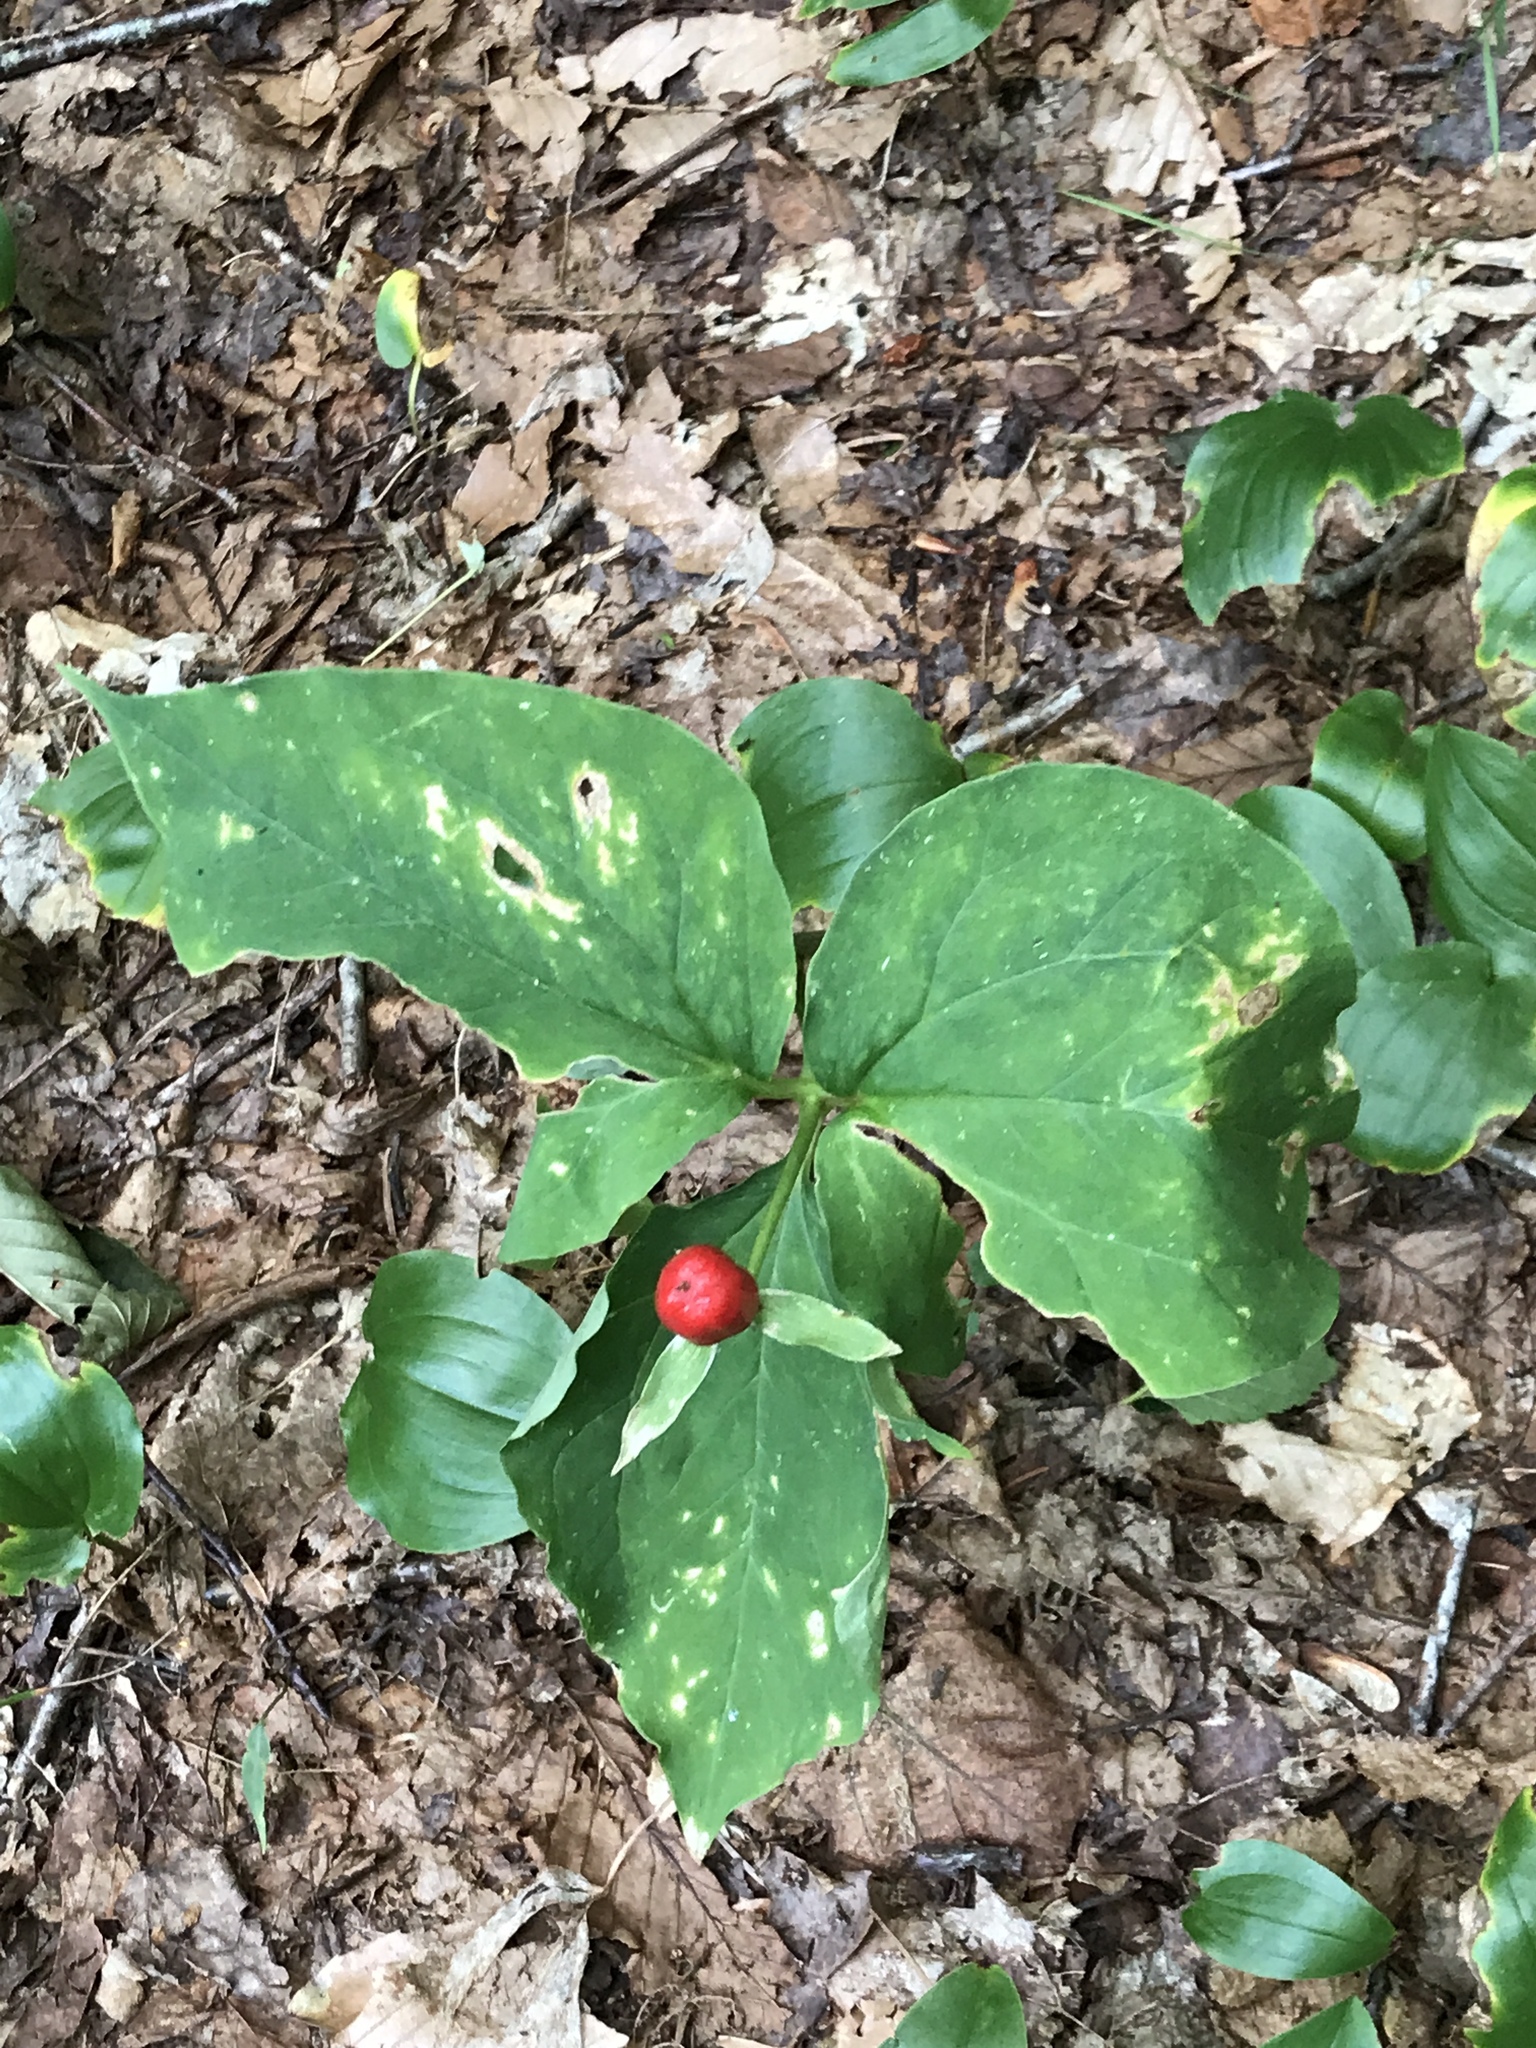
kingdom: Plantae
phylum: Tracheophyta
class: Liliopsida
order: Liliales
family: Melanthiaceae
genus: Trillium
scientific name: Trillium undulatum
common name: Paint trillium
